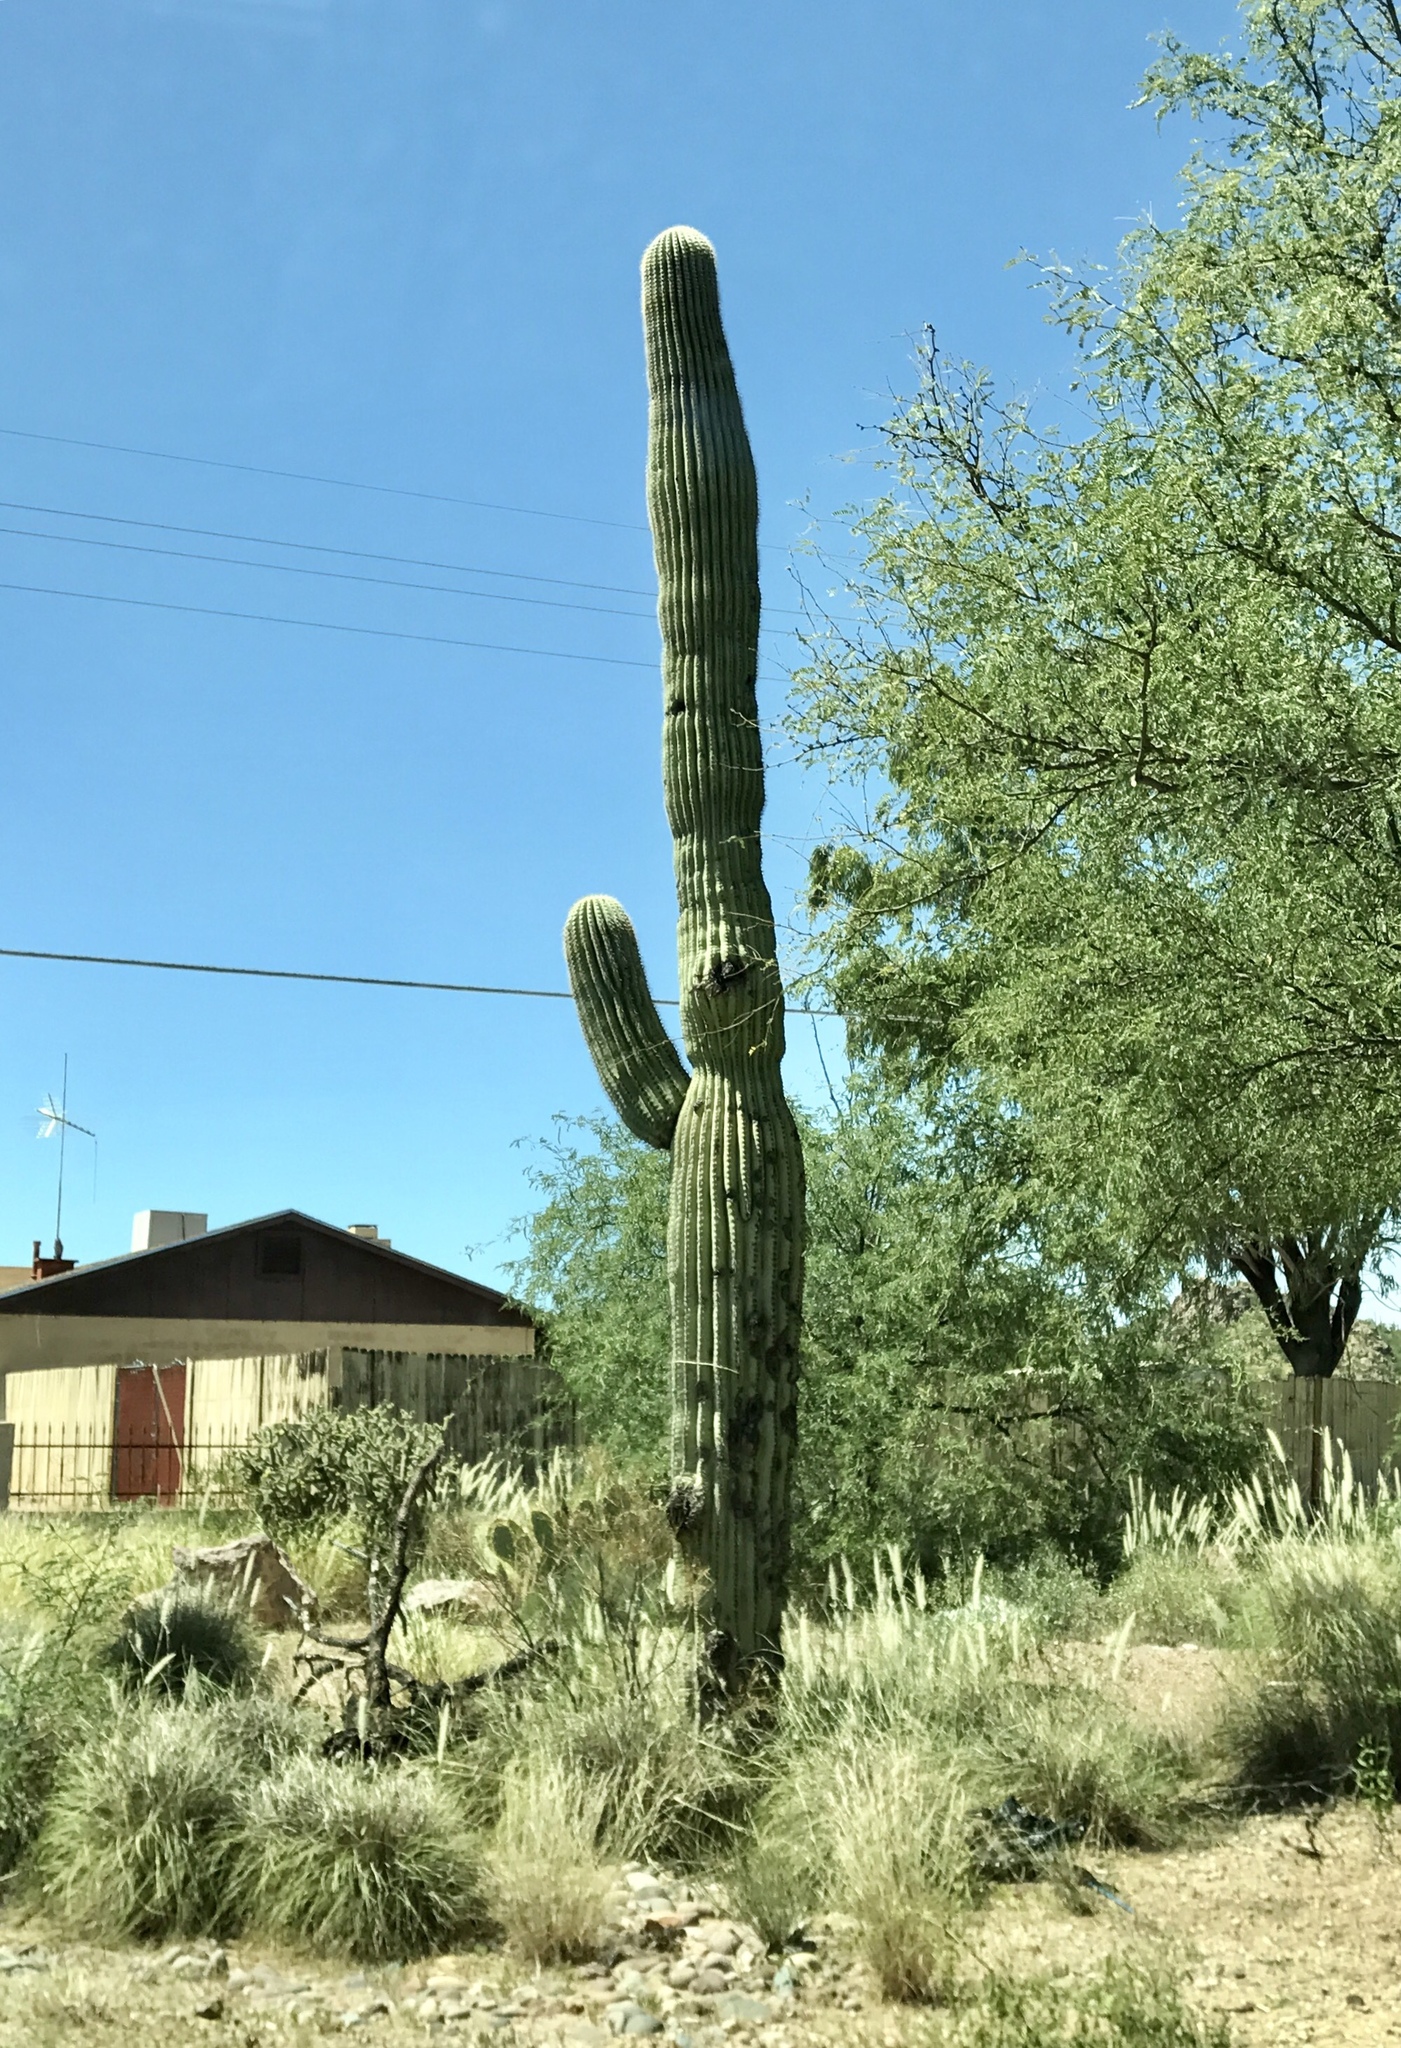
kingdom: Plantae
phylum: Tracheophyta
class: Magnoliopsida
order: Caryophyllales
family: Cactaceae
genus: Carnegiea
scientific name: Carnegiea gigantea
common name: Saguaro
